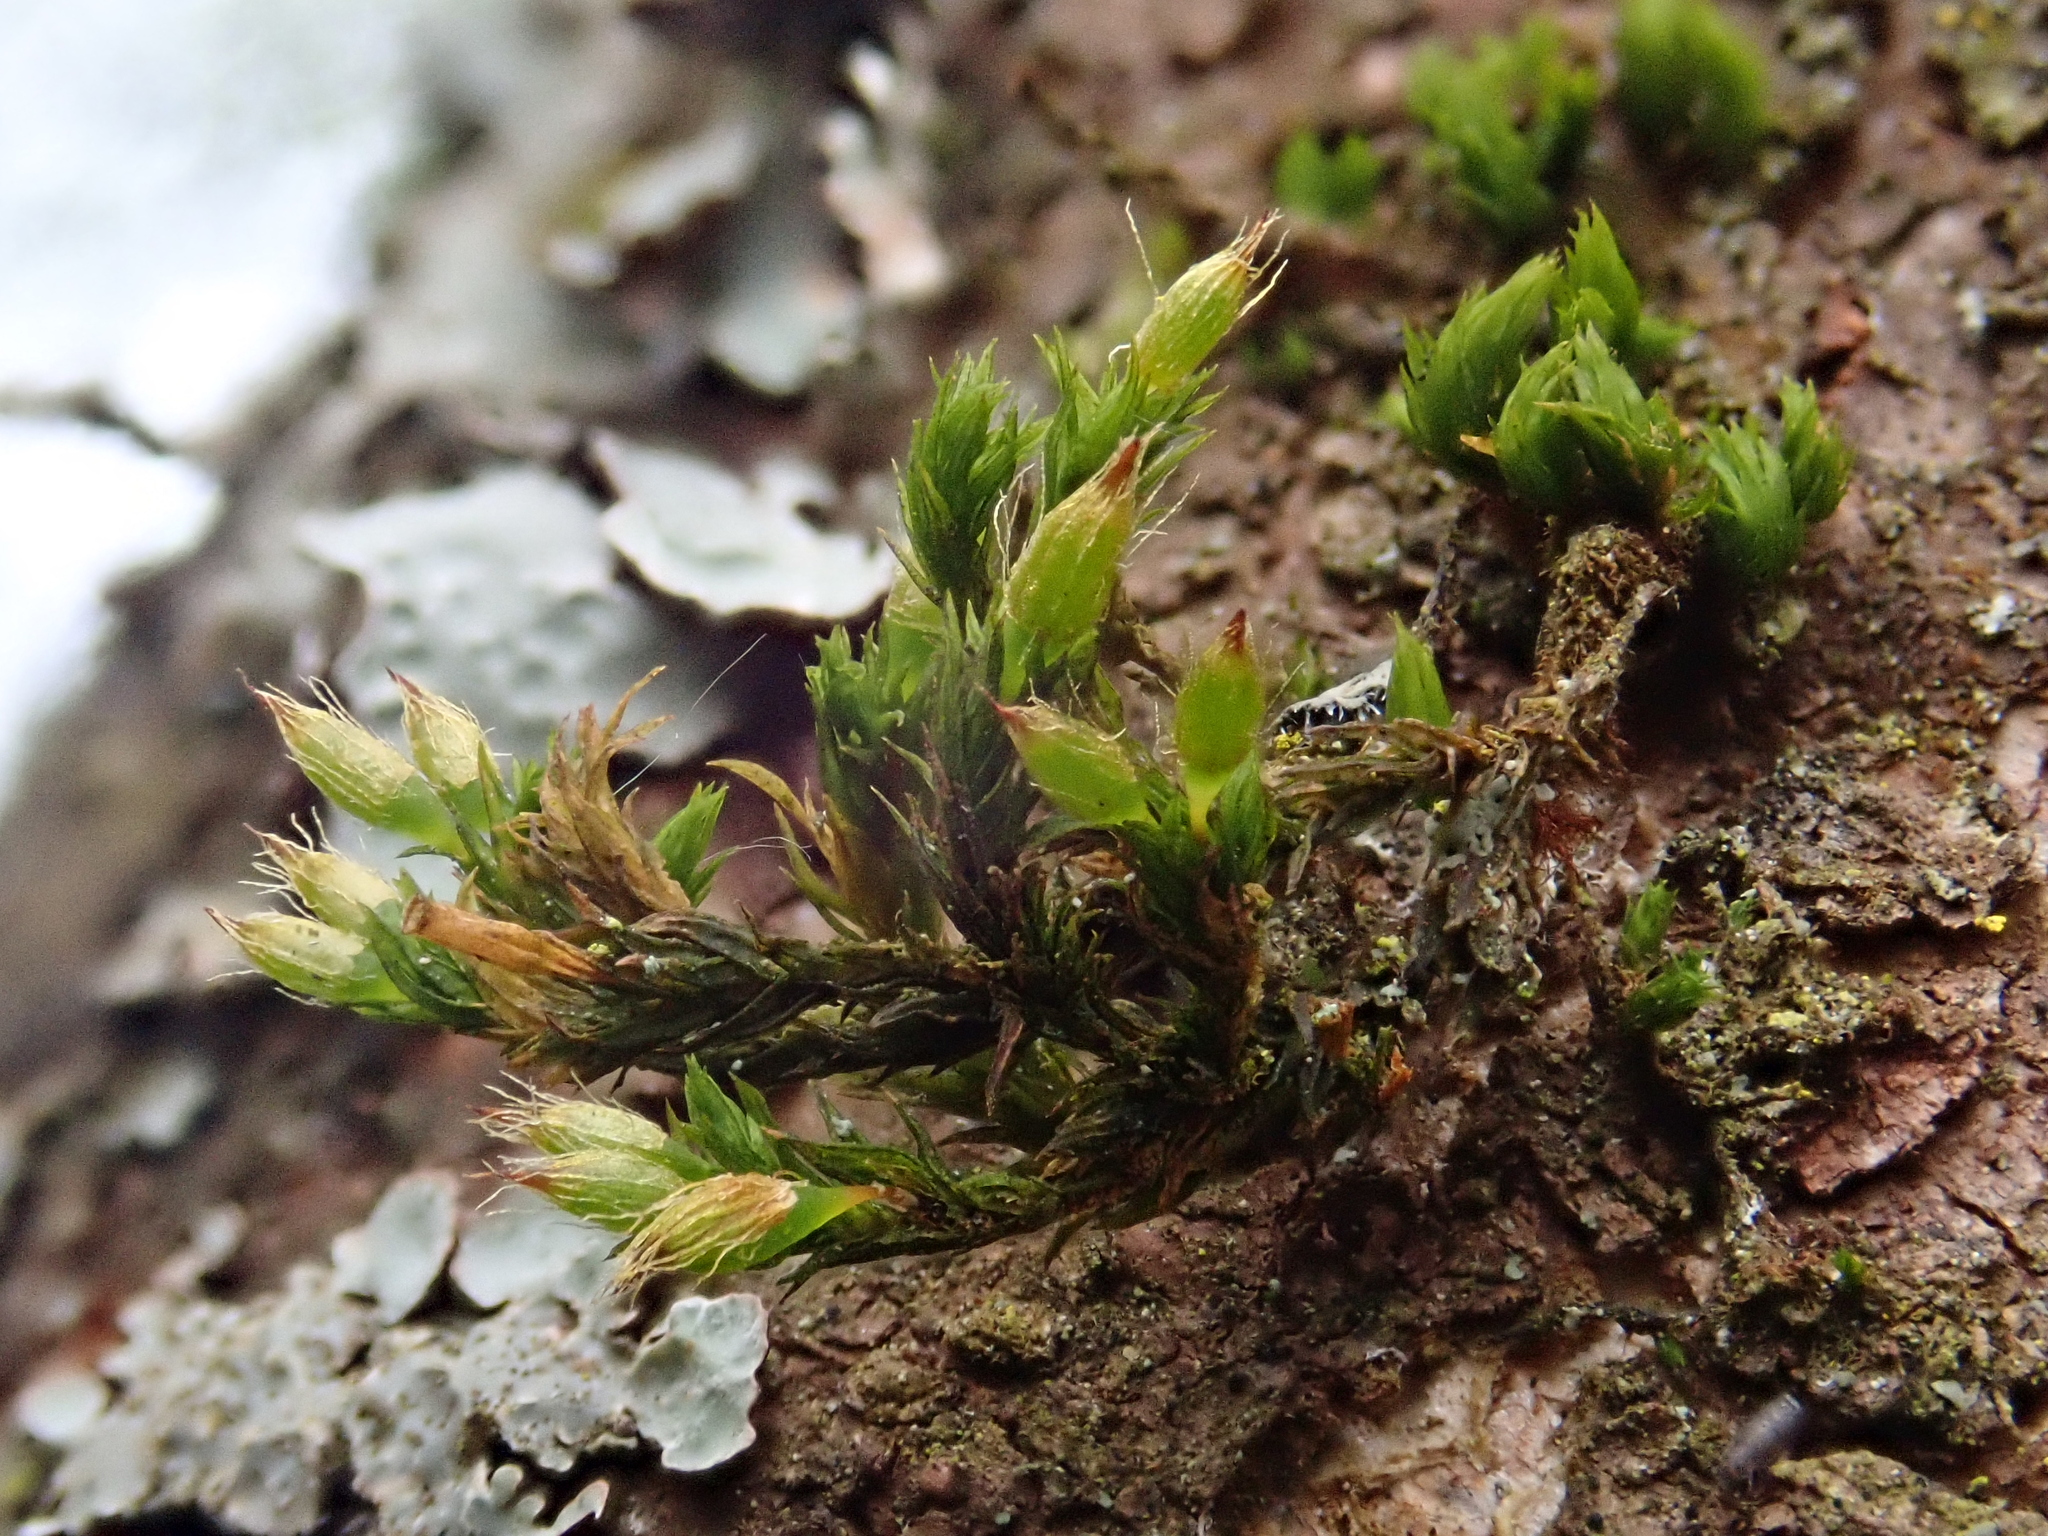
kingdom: Plantae
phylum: Bryophyta
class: Bryopsida
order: Orthotrichales
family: Orthotrichaceae
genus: Lewinskya
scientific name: Lewinskya speciosa
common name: Showy bristle moss
